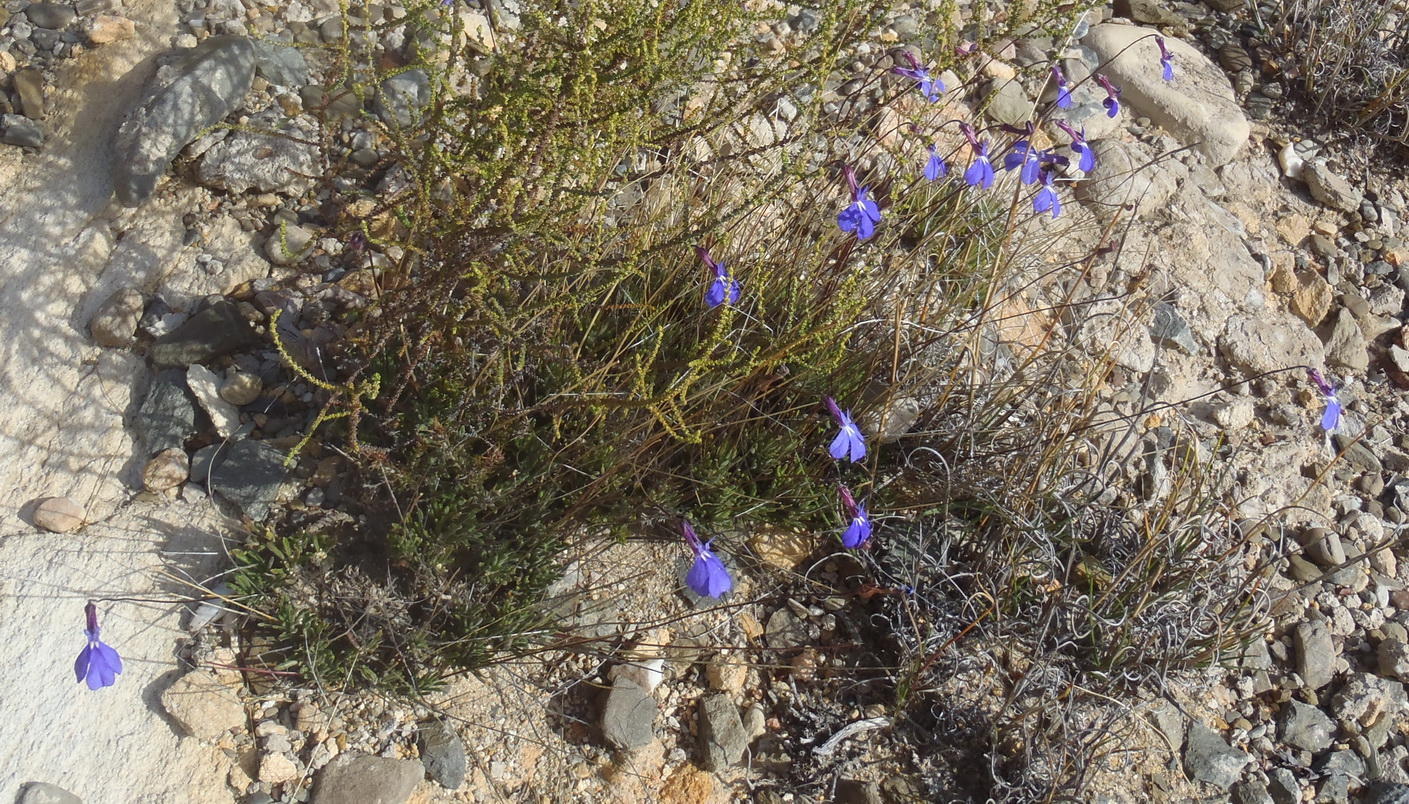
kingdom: Plantae
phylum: Tracheophyta
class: Magnoliopsida
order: Asterales
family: Campanulaceae
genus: Lobelia
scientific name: Lobelia tomentosa
